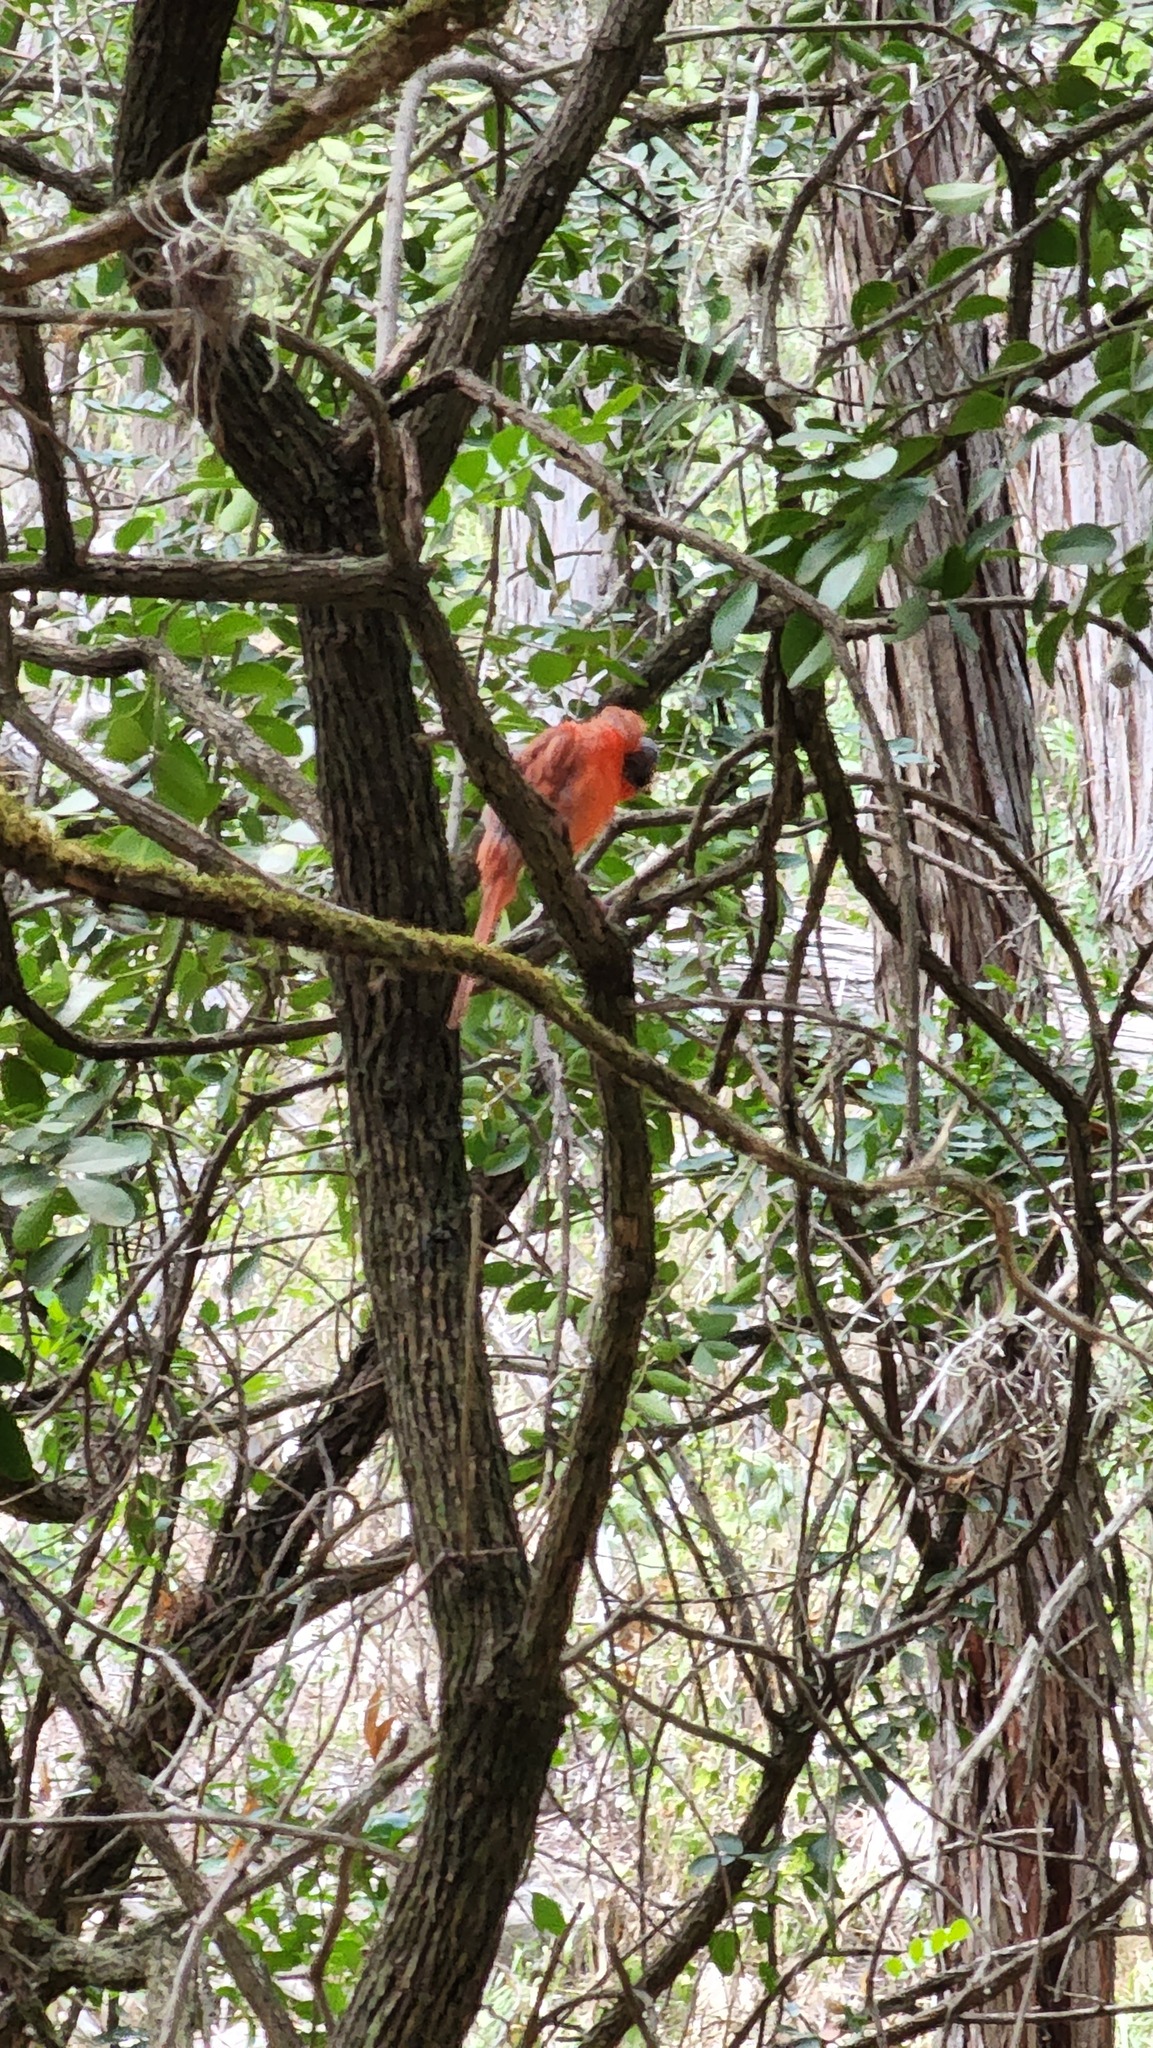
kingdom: Animalia
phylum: Chordata
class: Aves
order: Passeriformes
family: Cardinalidae
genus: Cardinalis
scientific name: Cardinalis cardinalis
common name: Northern cardinal
